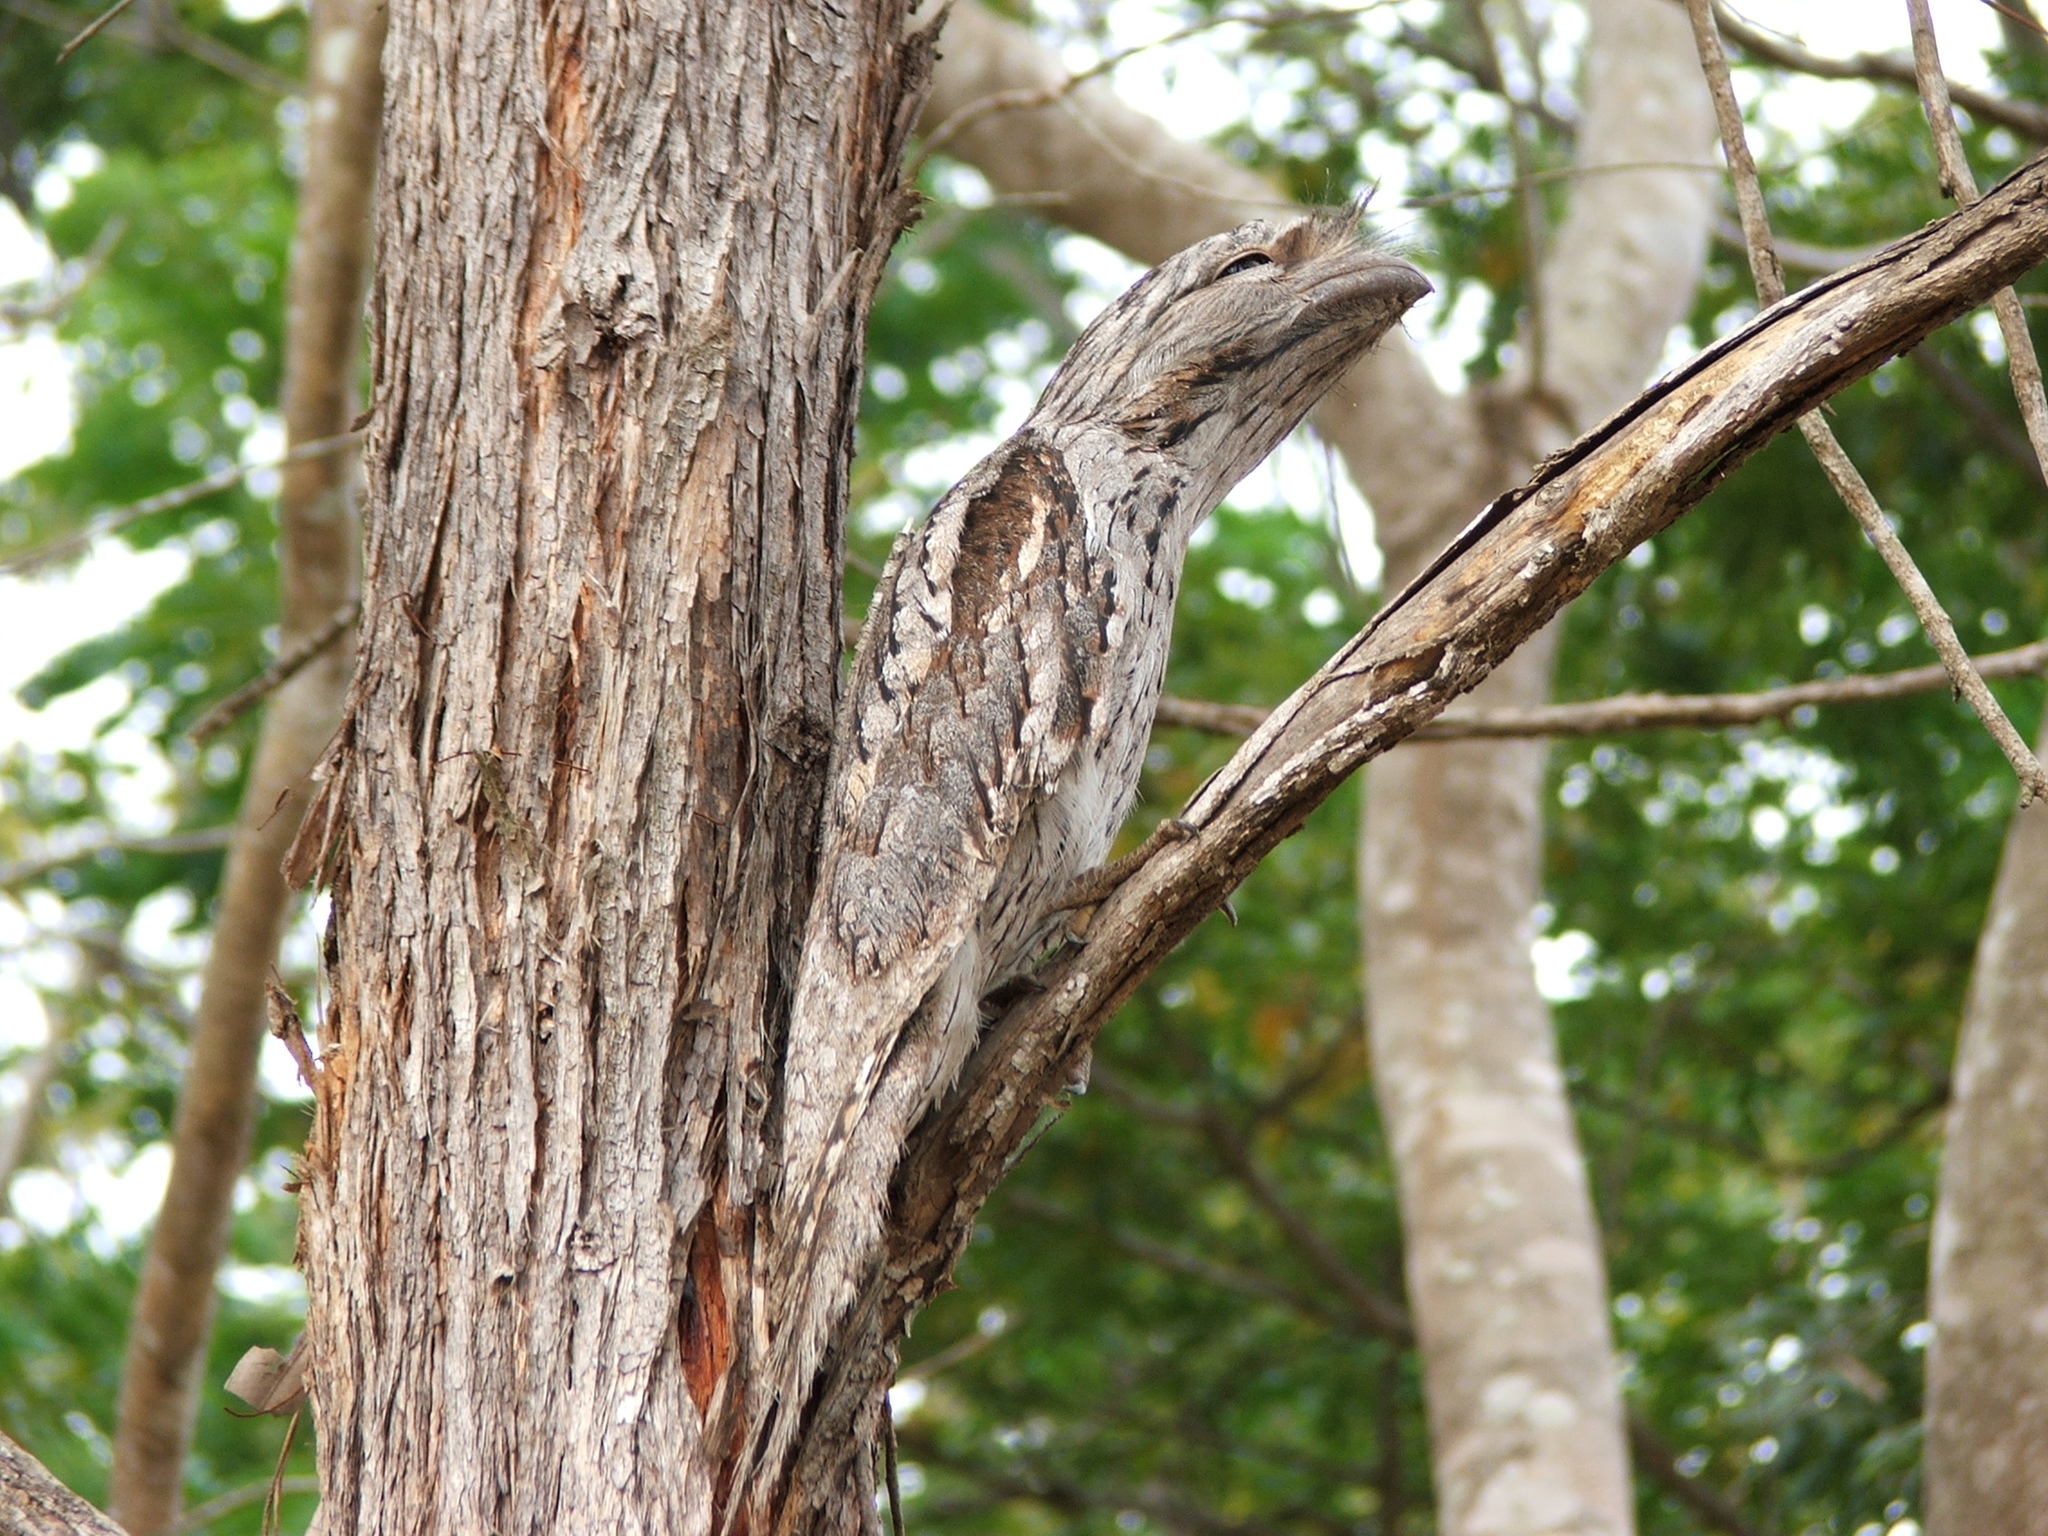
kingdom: Animalia
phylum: Chordata
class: Aves
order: Caprimulgiformes
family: Podargidae
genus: Podargus
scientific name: Podargus strigoides
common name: Tawny frogmouth
